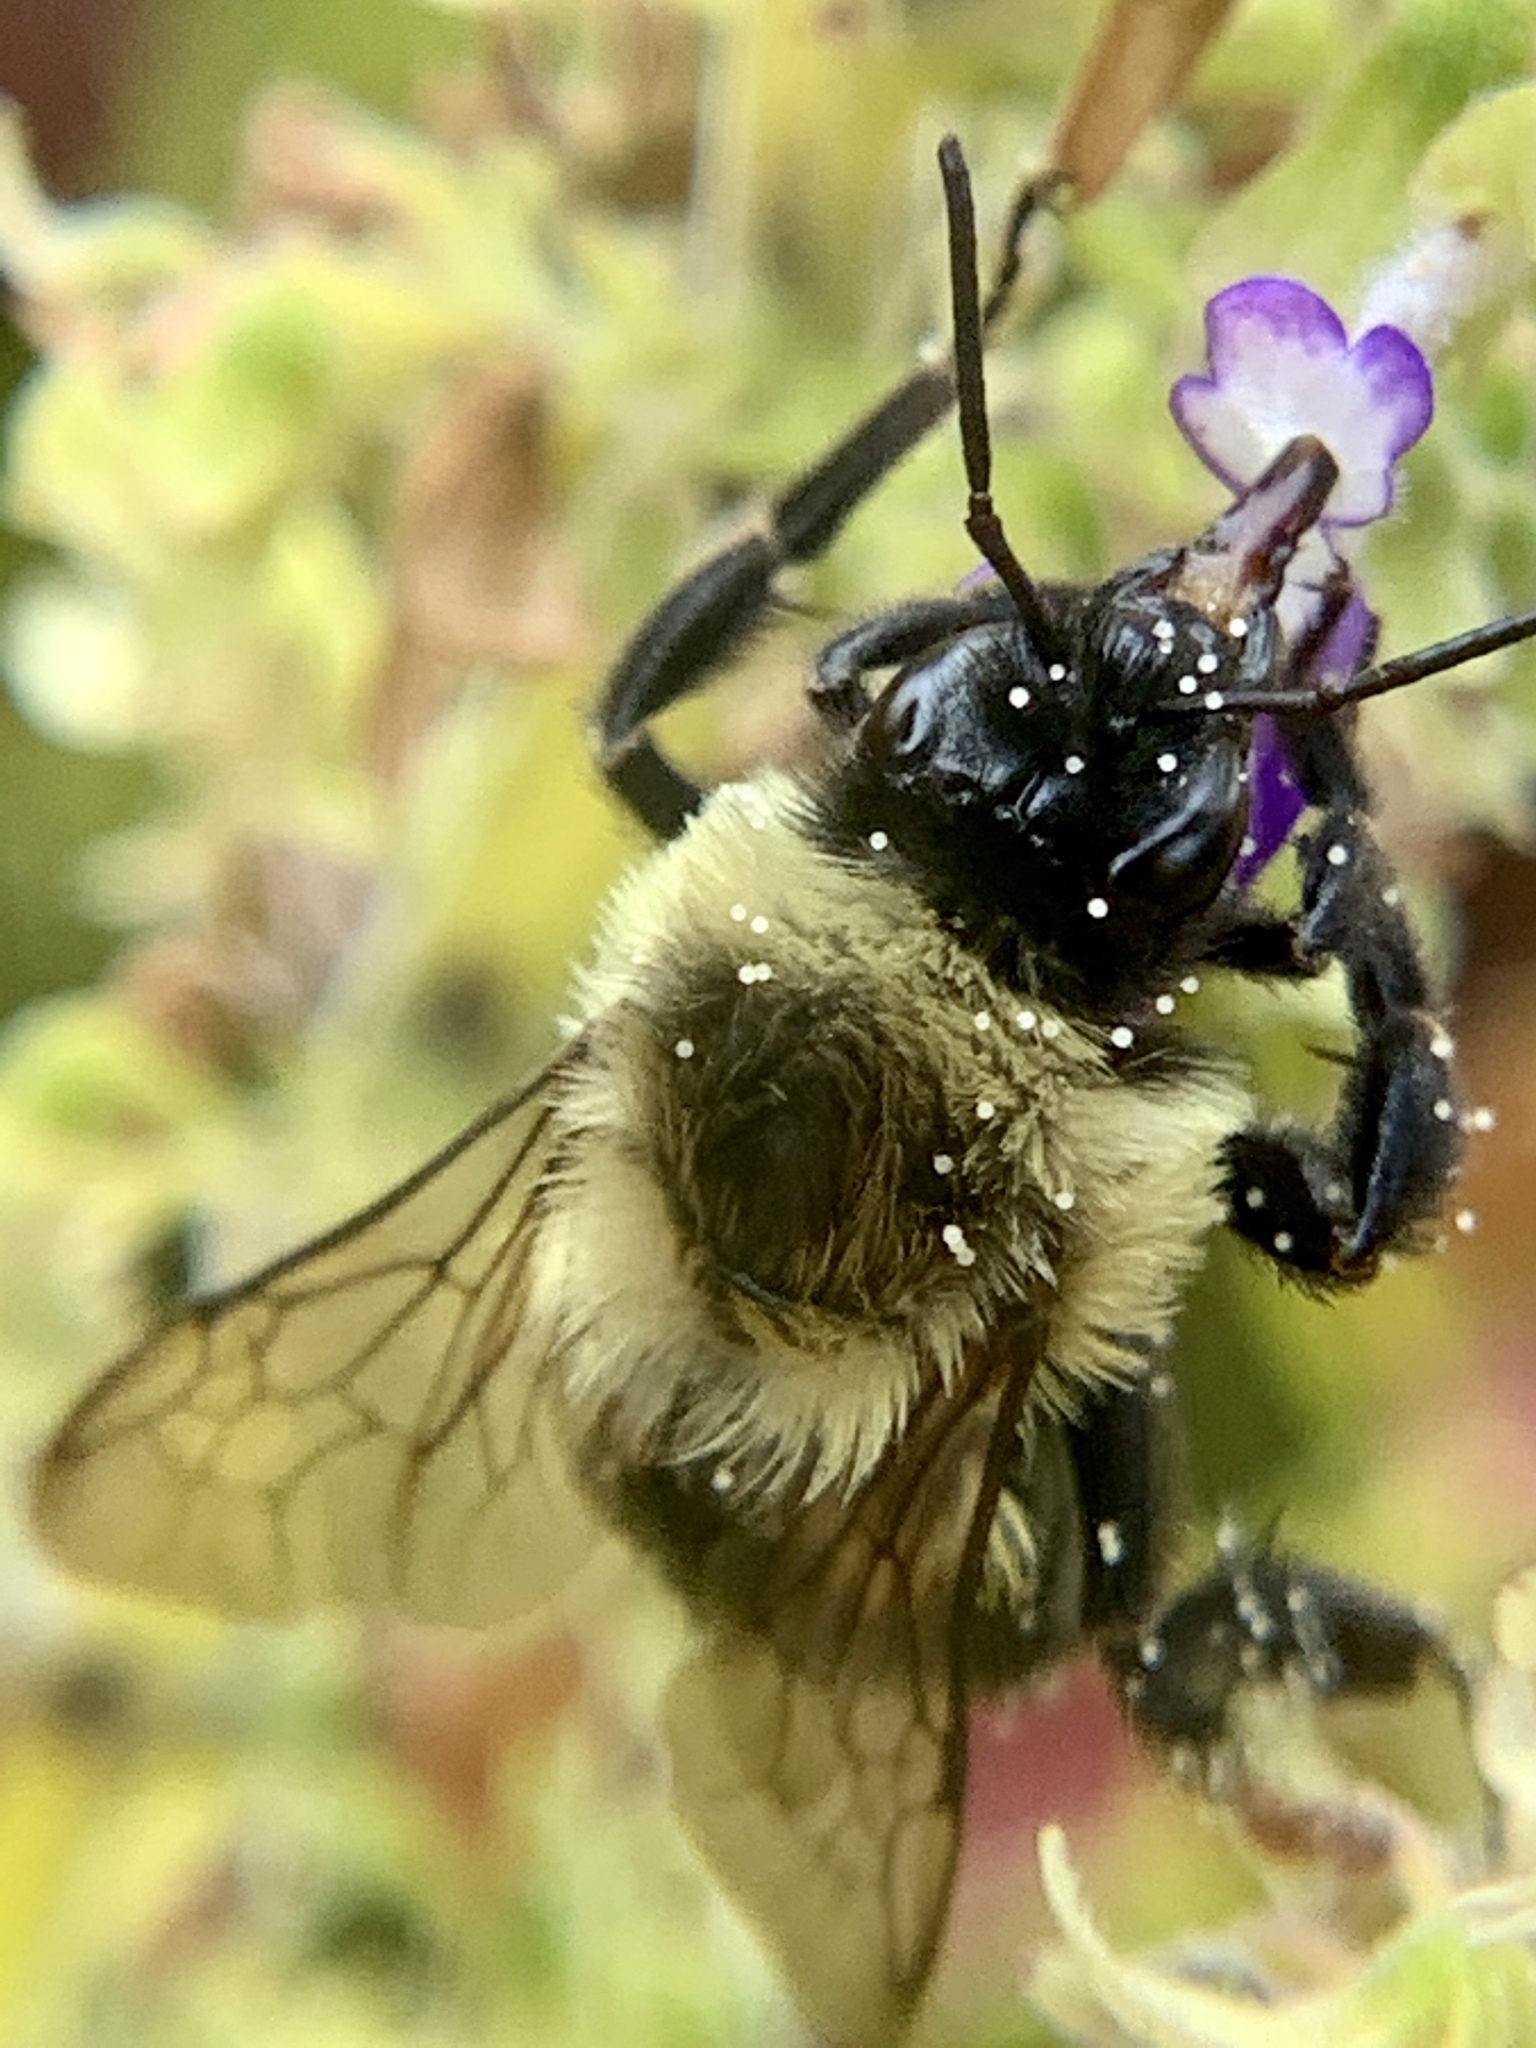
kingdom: Animalia
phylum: Arthropoda
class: Insecta
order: Hymenoptera
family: Apidae
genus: Bombus
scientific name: Bombus impatiens
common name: Common eastern bumble bee
